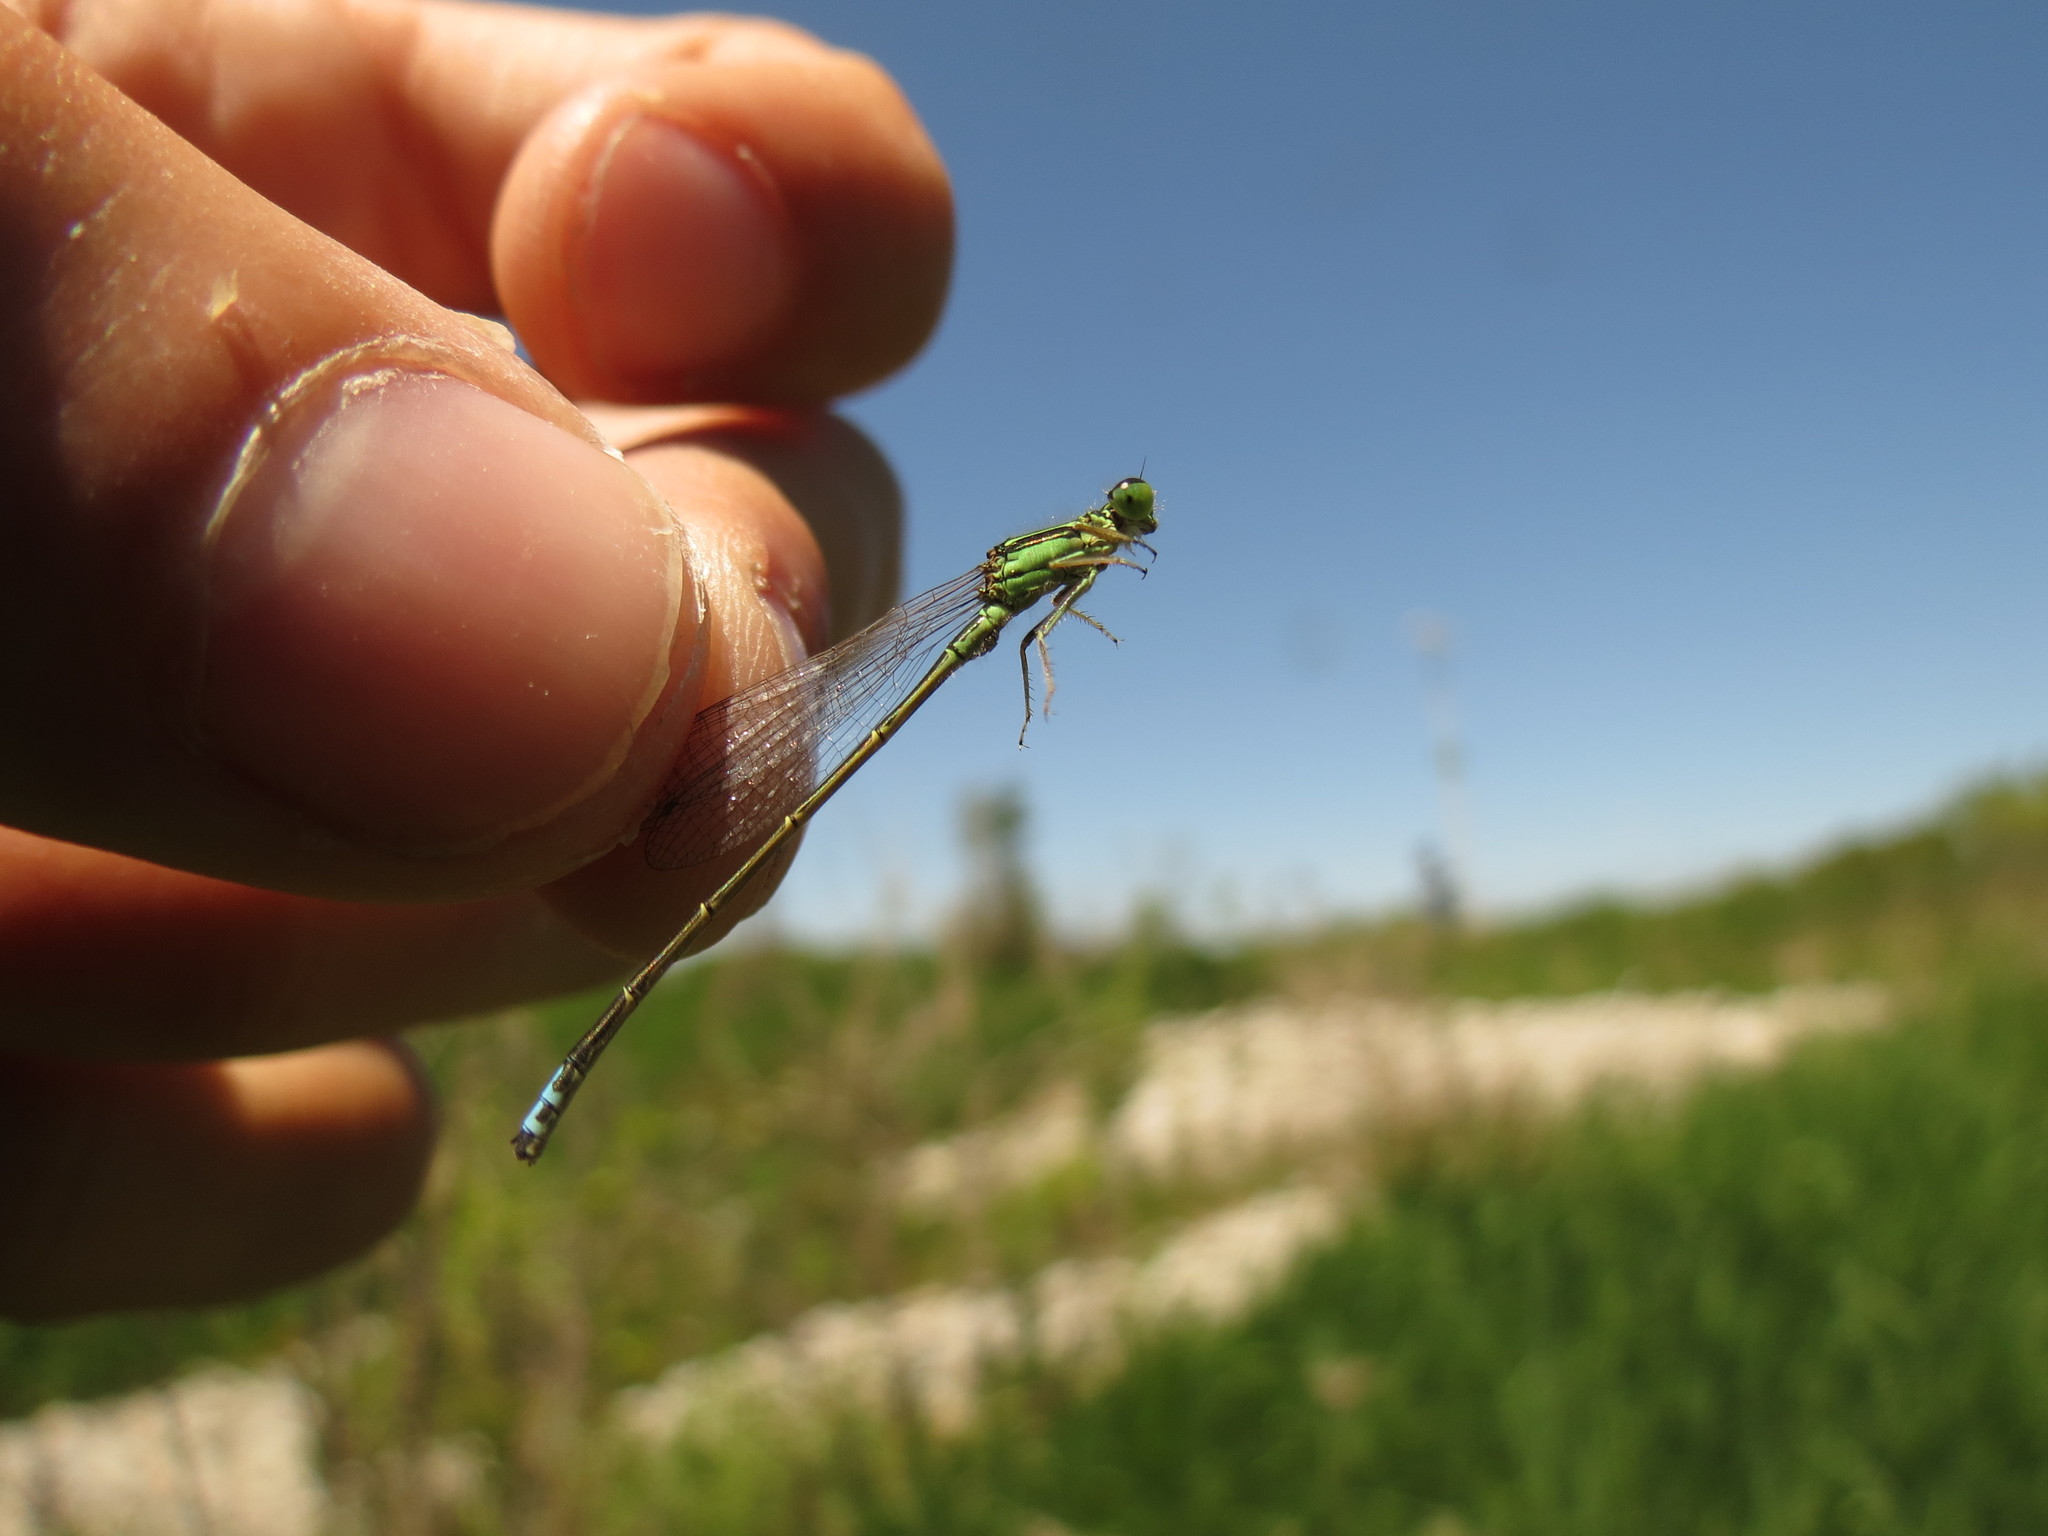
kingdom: Animalia
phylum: Arthropoda
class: Insecta
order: Odonata
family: Coenagrionidae
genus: Ischnura
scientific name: Ischnura verticalis
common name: Eastern forktail
